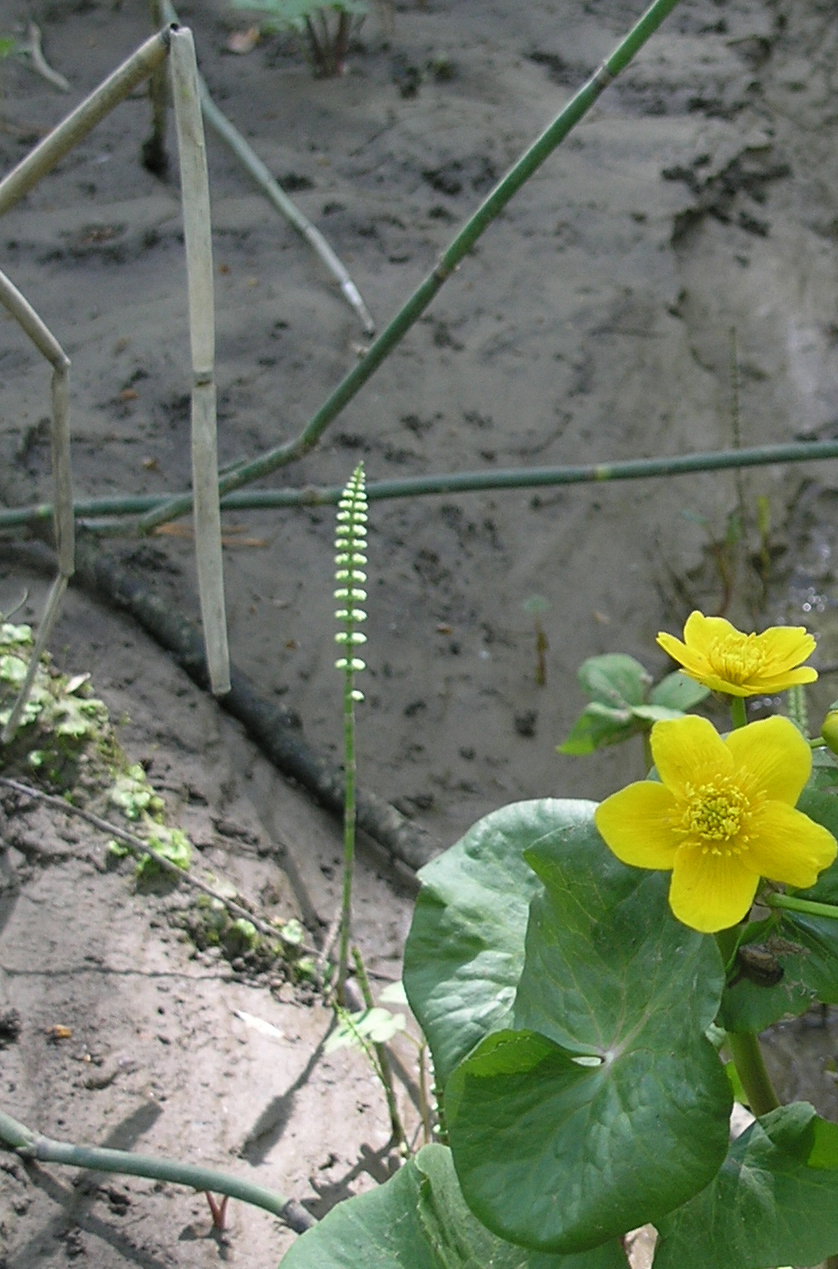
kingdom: Plantae
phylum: Tracheophyta
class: Polypodiopsida
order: Equisetales
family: Equisetaceae
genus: Equisetum
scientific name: Equisetum pratense
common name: Meadow horsetail
